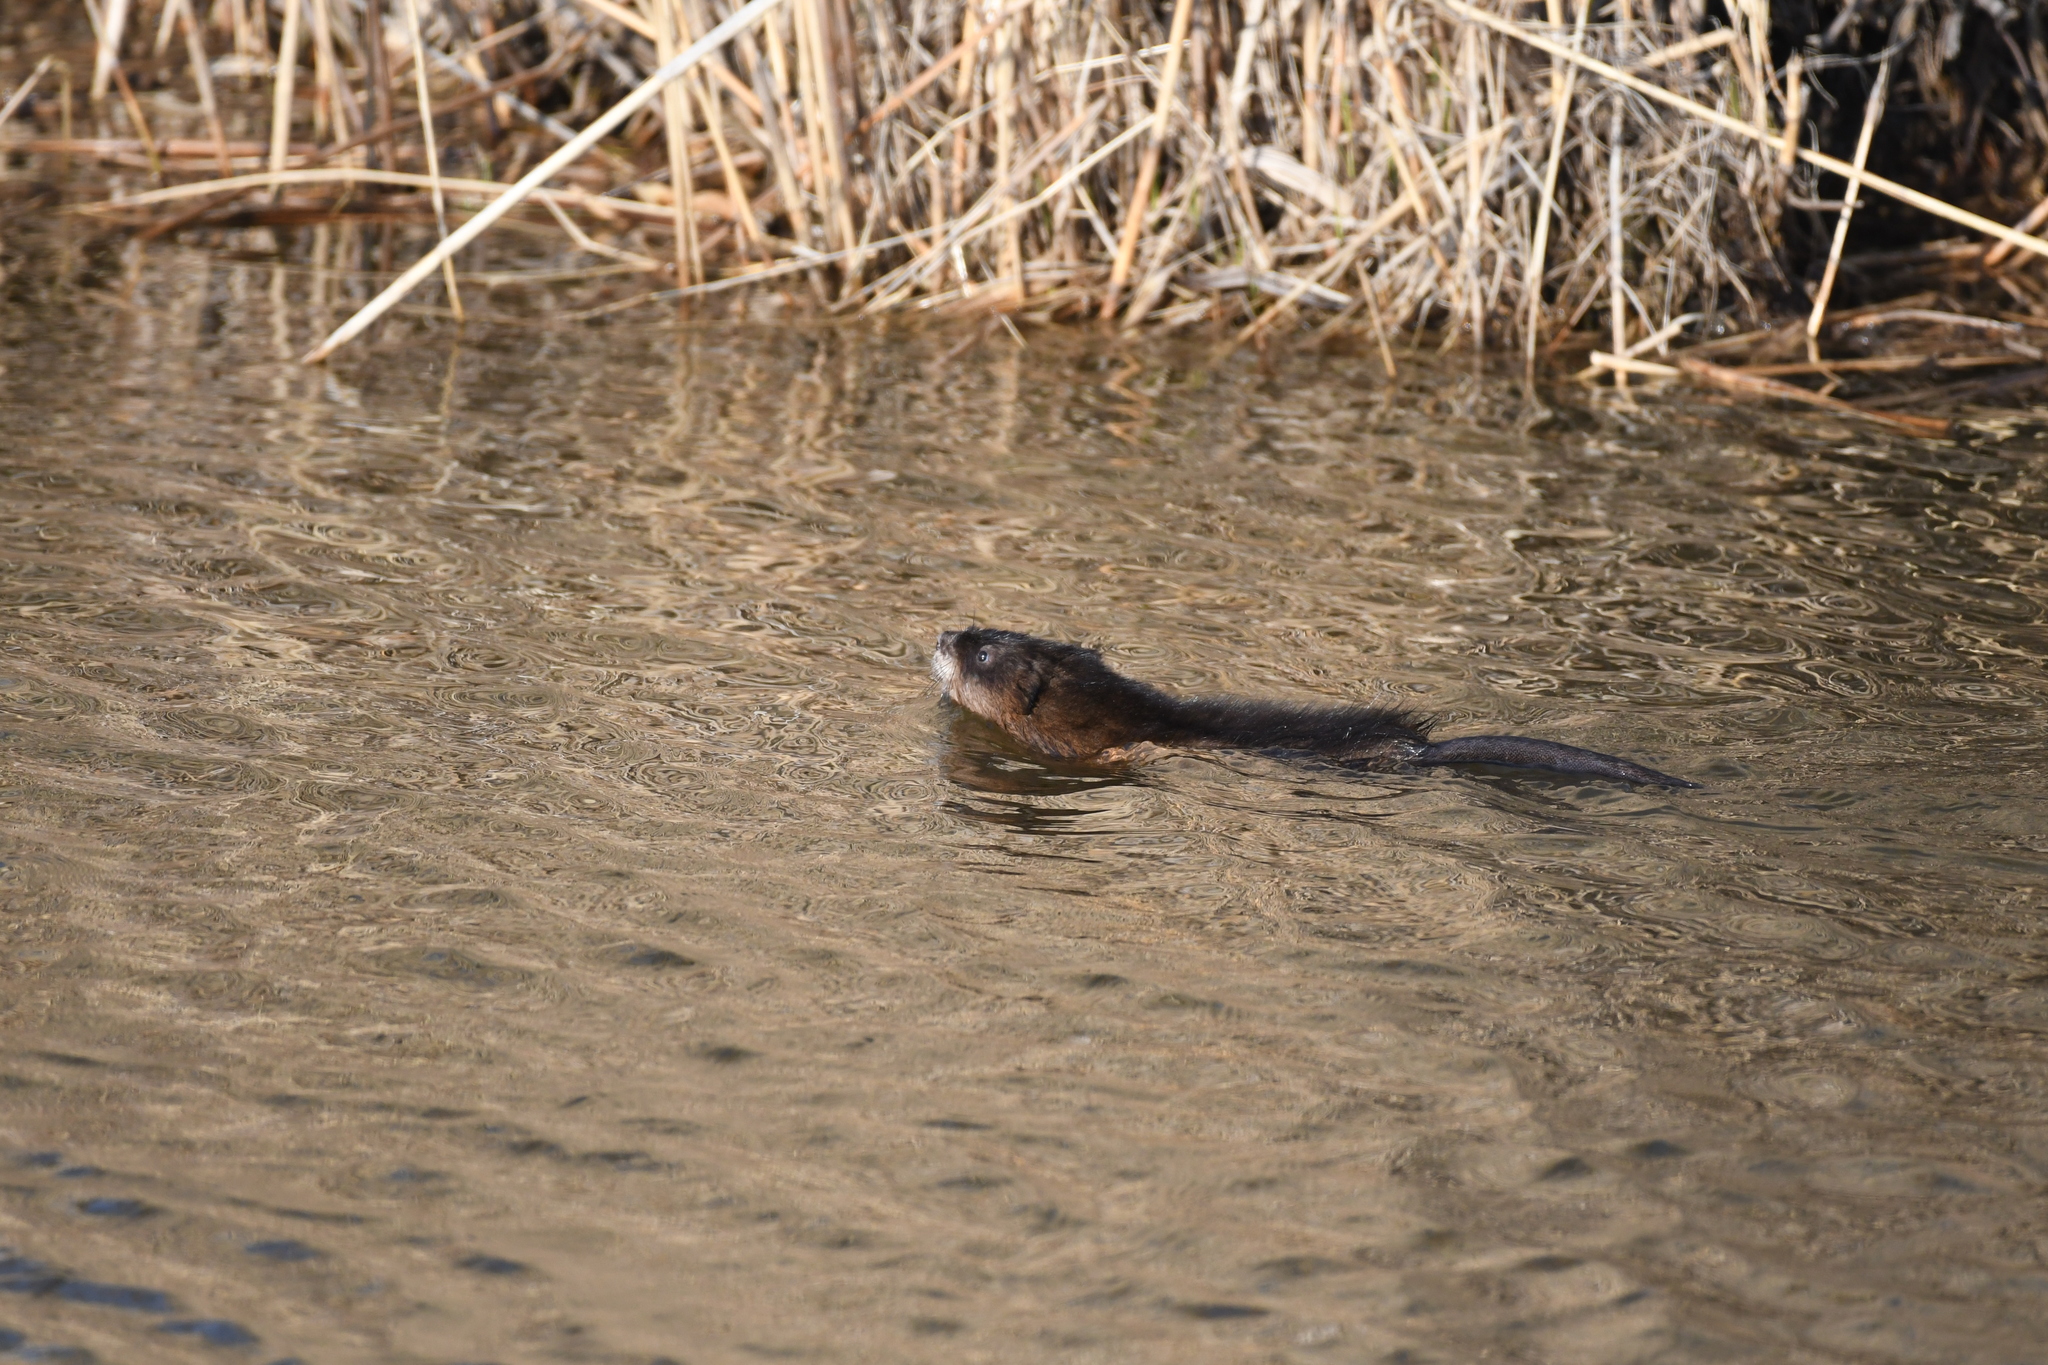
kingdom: Animalia
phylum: Chordata
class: Mammalia
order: Rodentia
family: Cricetidae
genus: Ondatra
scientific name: Ondatra zibethicus
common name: Muskrat
